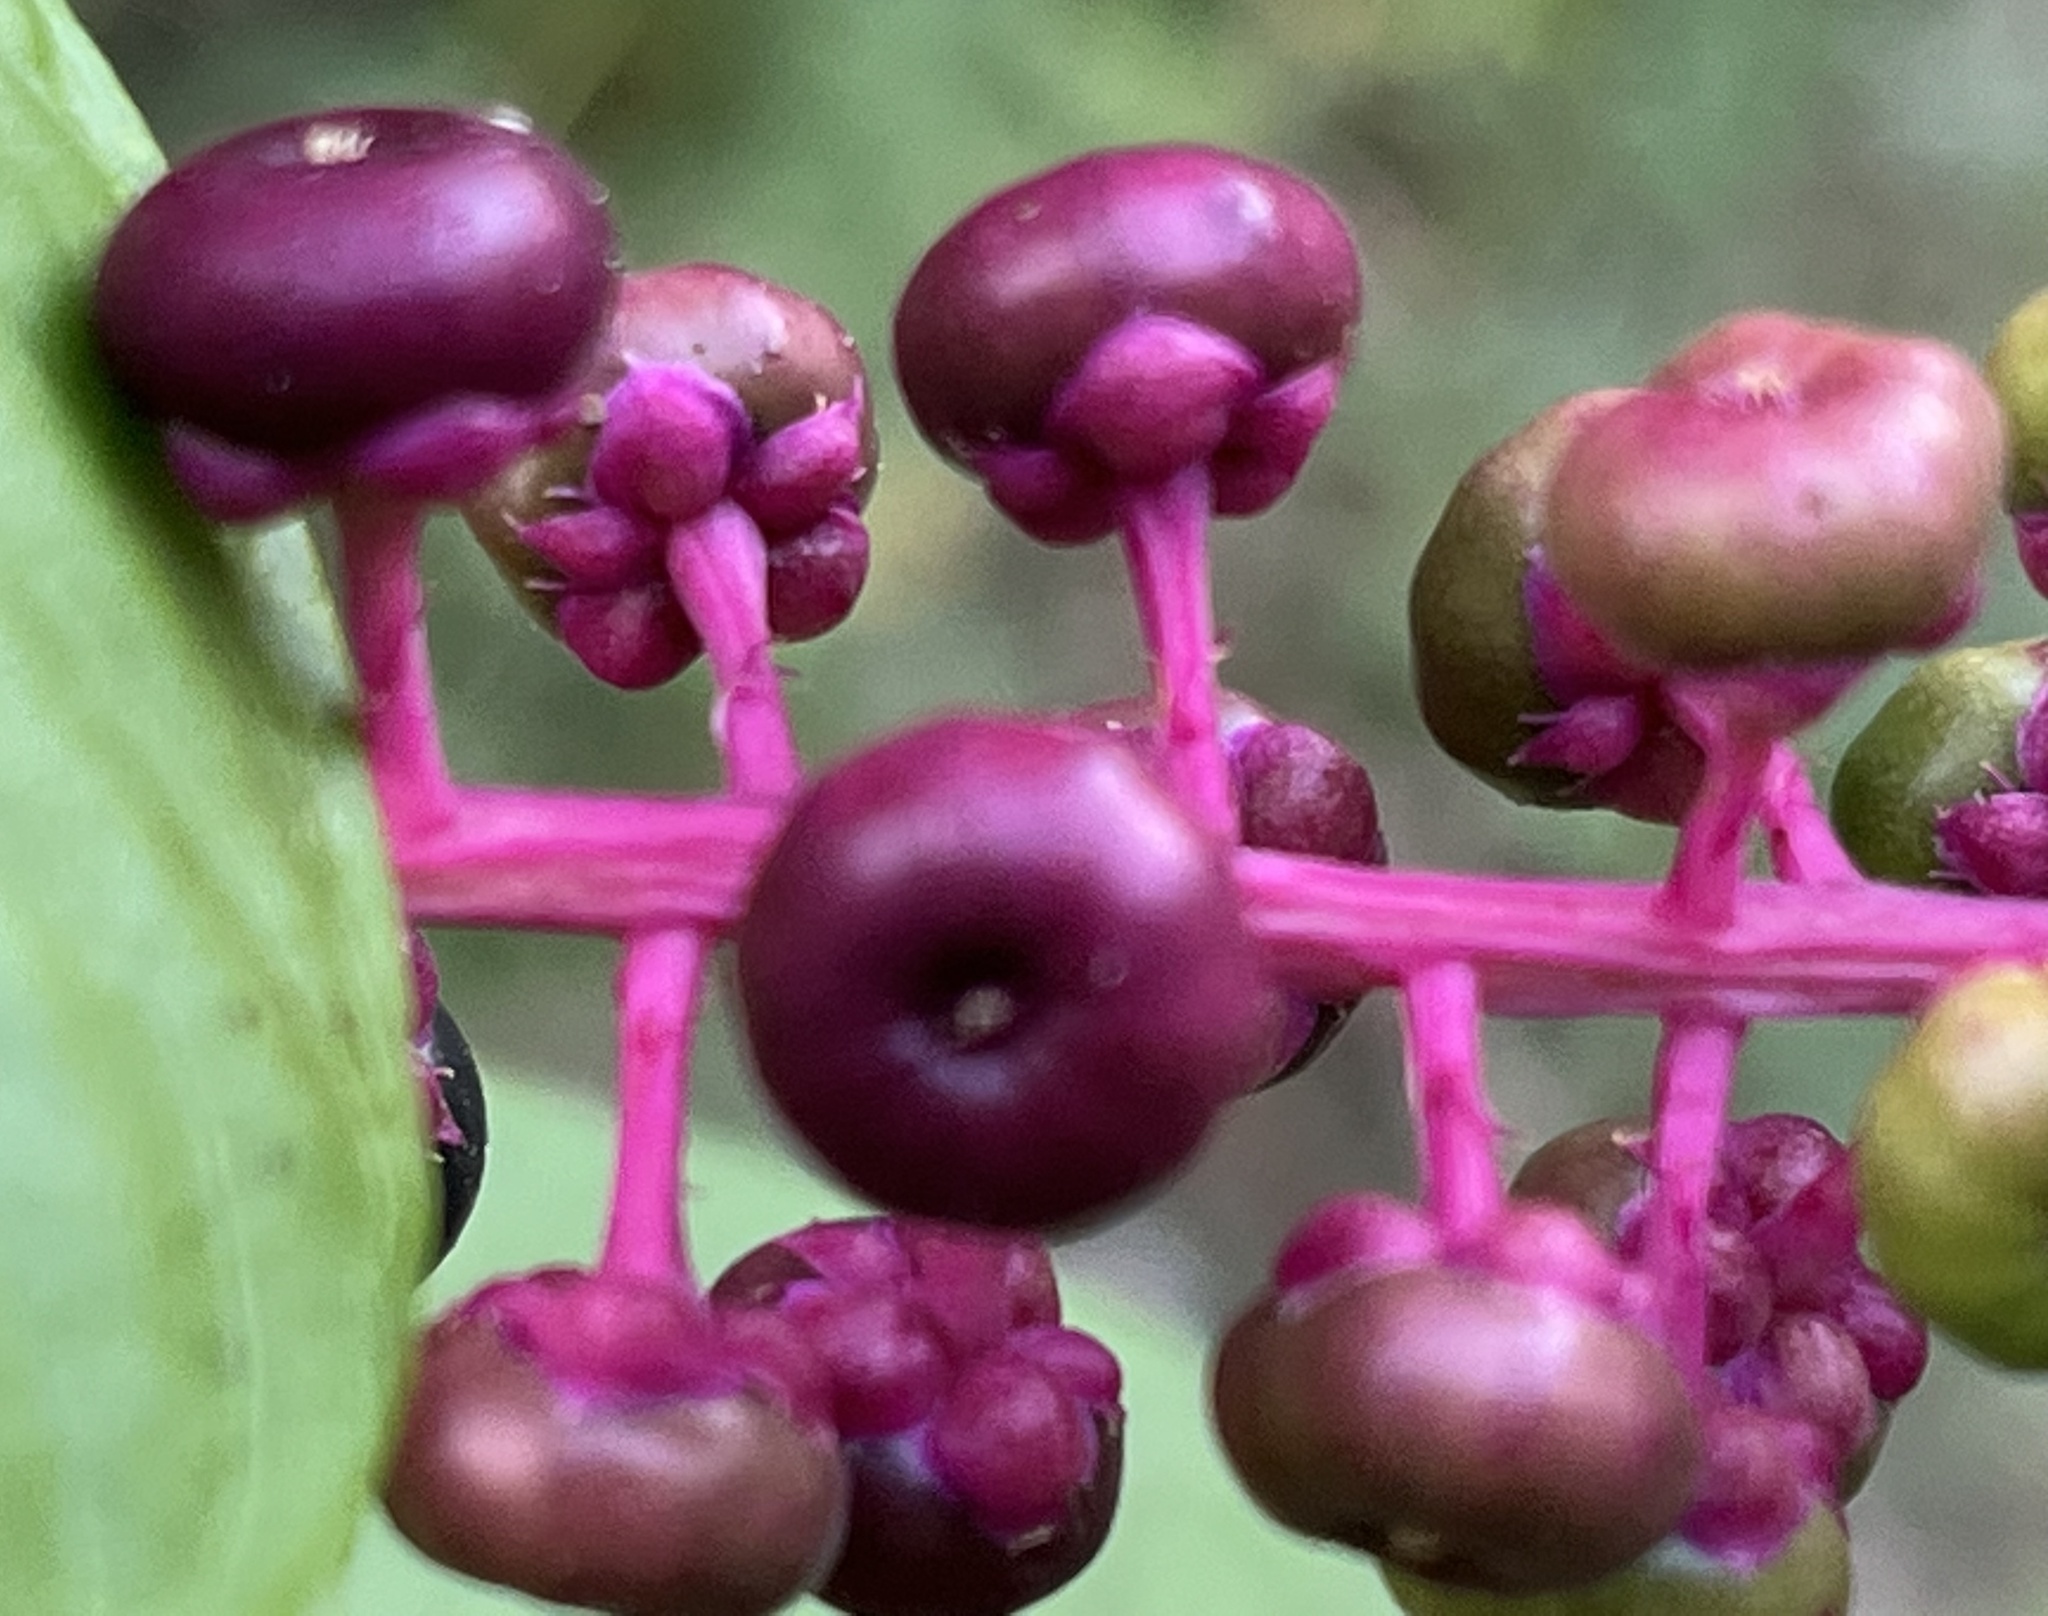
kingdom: Plantae
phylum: Tracheophyta
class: Magnoliopsida
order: Caryophyllales
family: Phytolaccaceae
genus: Phytolacca
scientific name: Phytolacca americana
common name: American pokeweed
